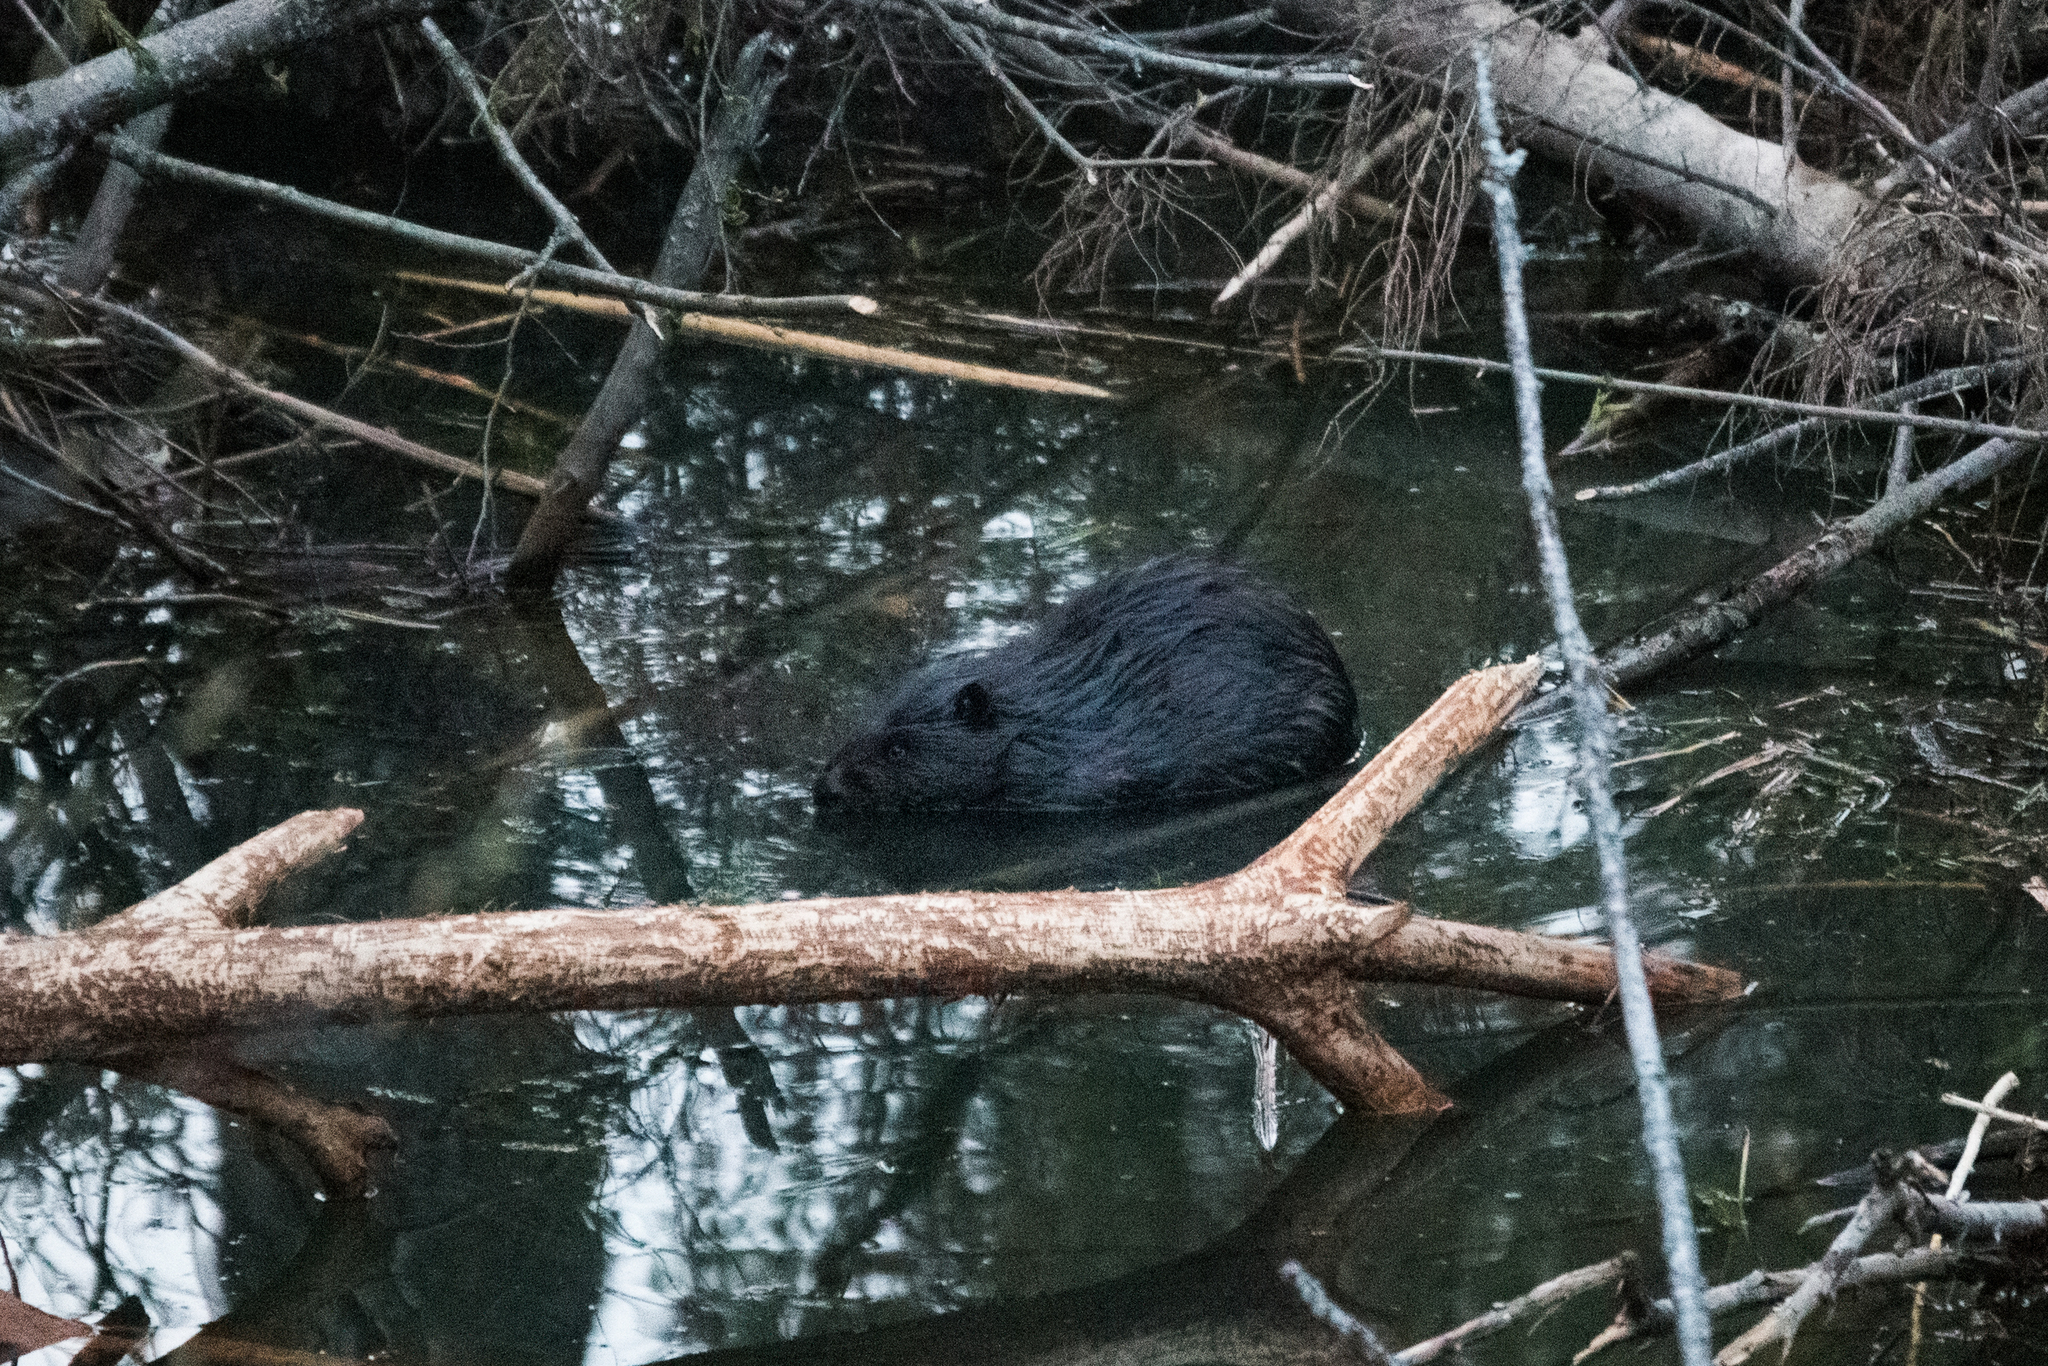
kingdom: Animalia
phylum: Chordata
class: Mammalia
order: Rodentia
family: Castoridae
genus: Castor
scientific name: Castor fiber
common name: Eurasian beaver
